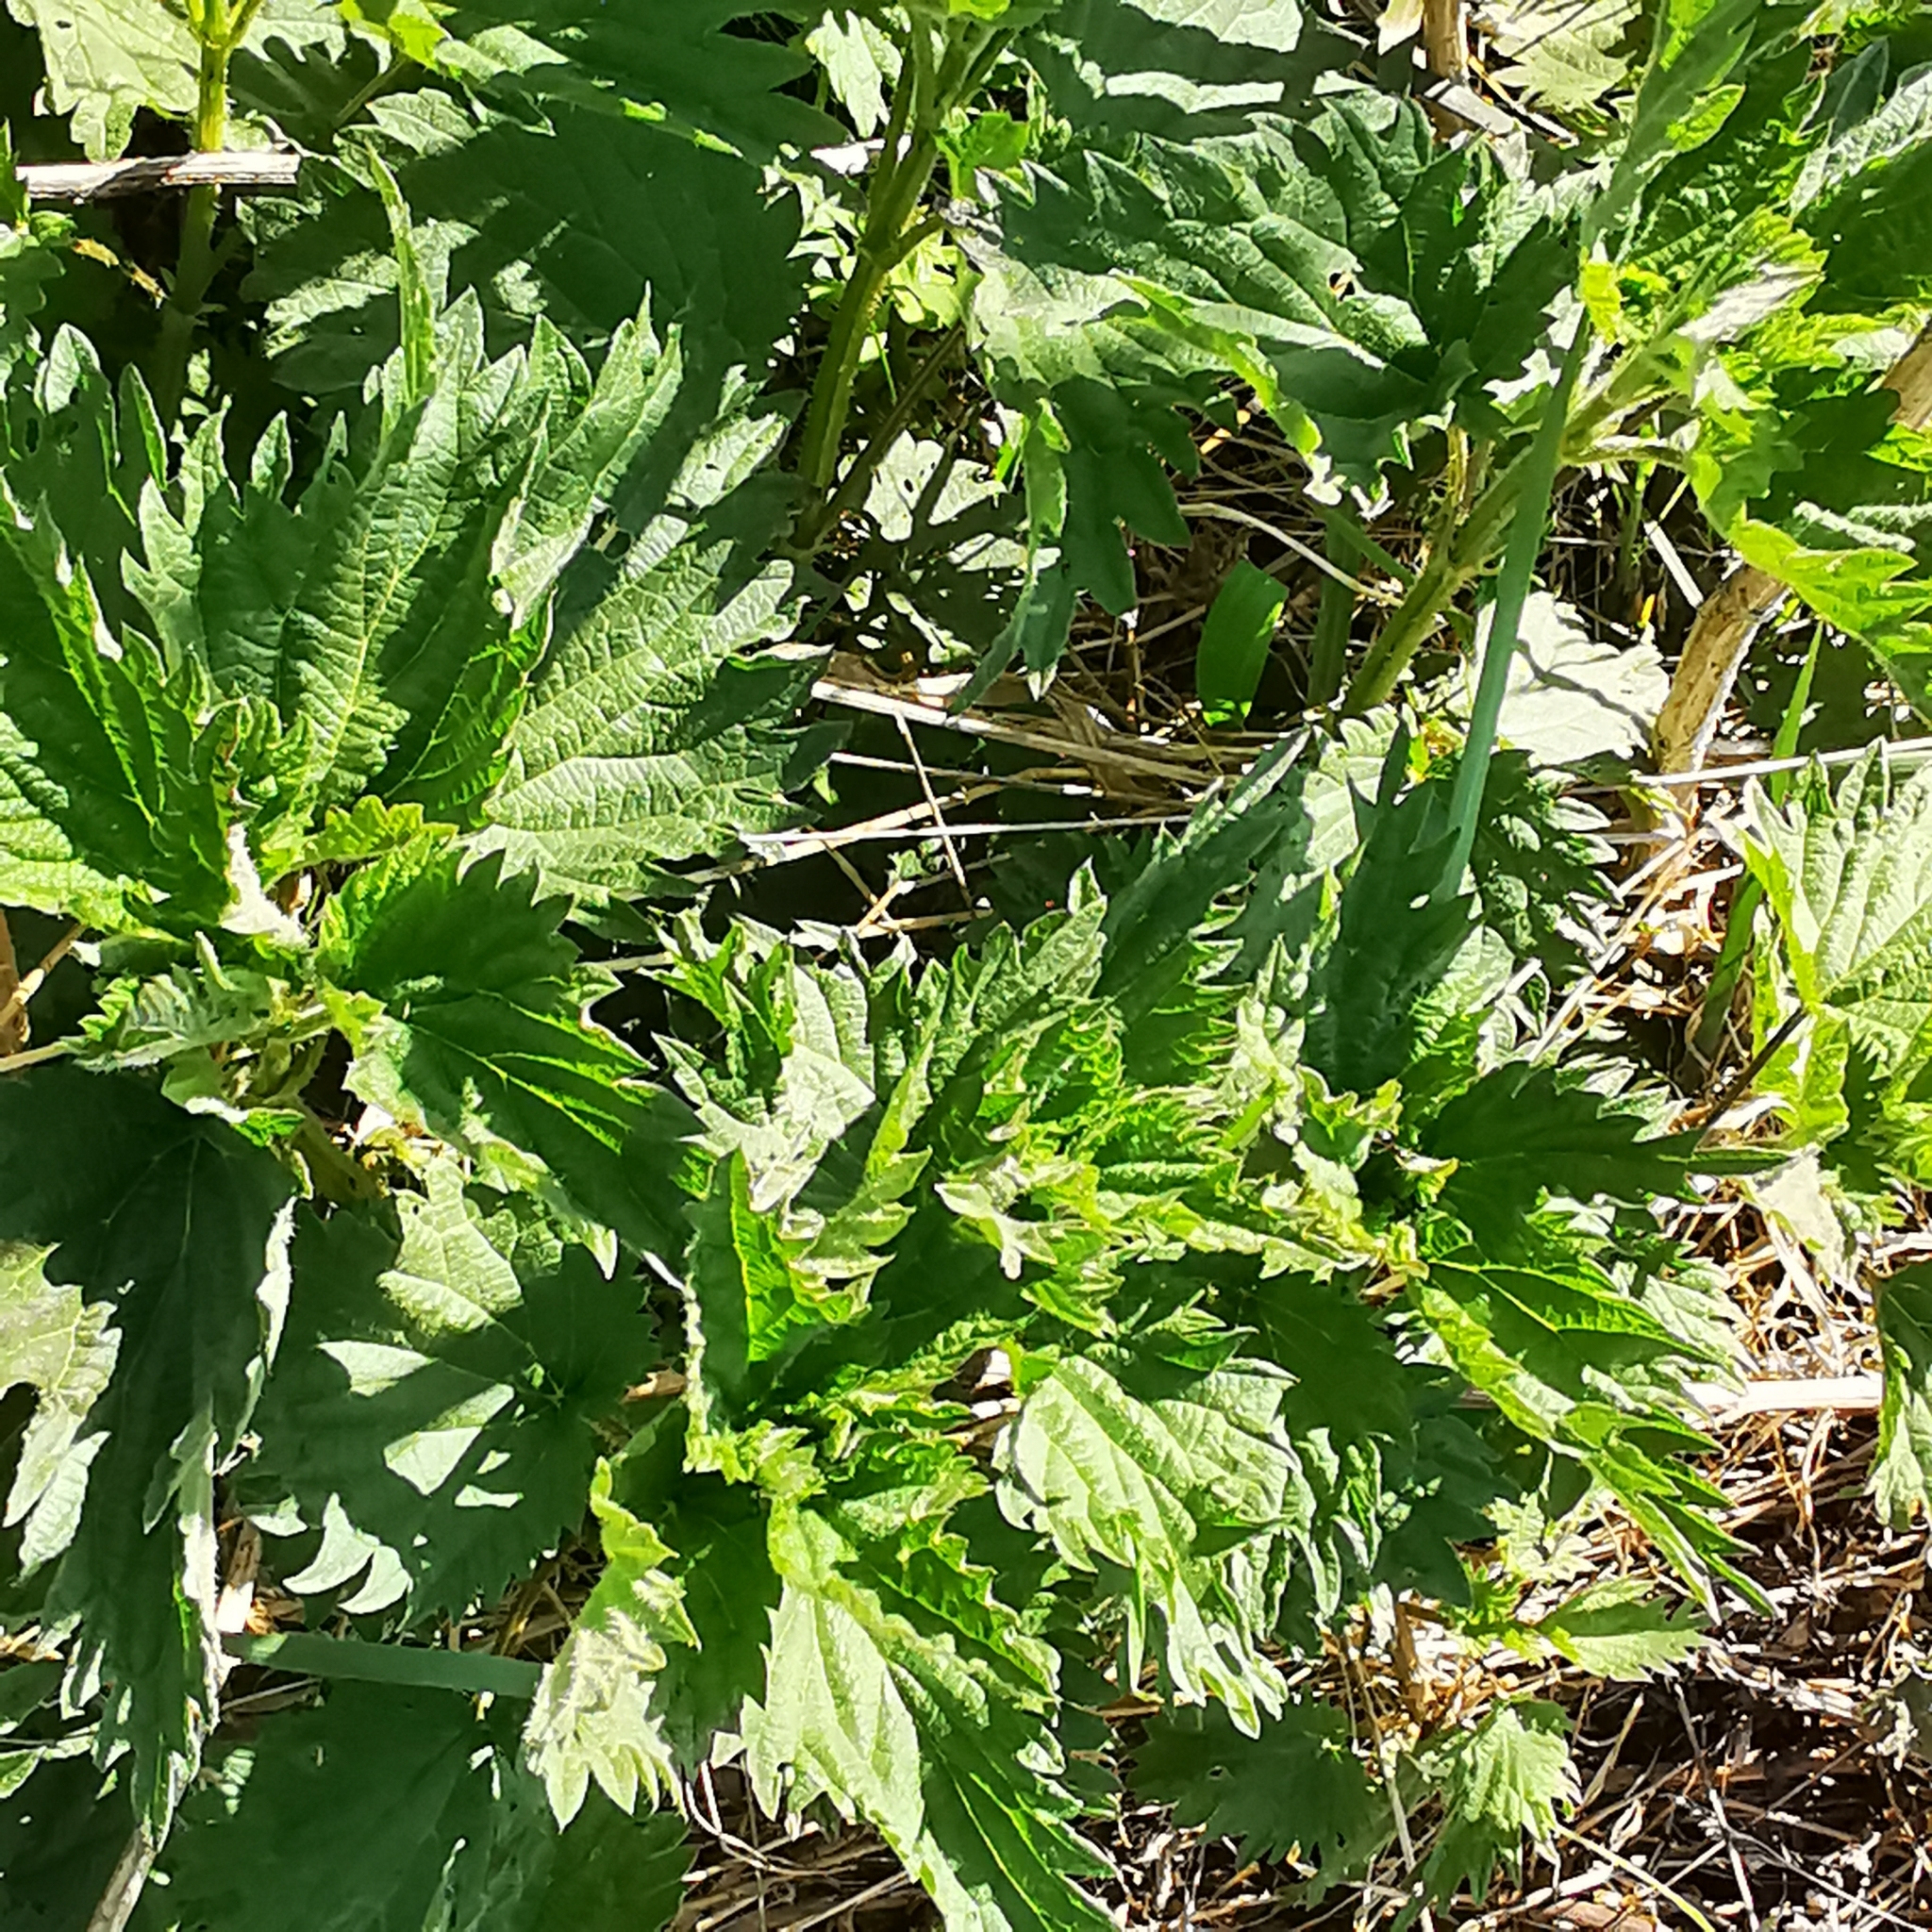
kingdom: Plantae
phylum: Tracheophyta
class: Magnoliopsida
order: Rosales
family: Urticaceae
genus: Urtica
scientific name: Urtica dioica
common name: Common nettle
